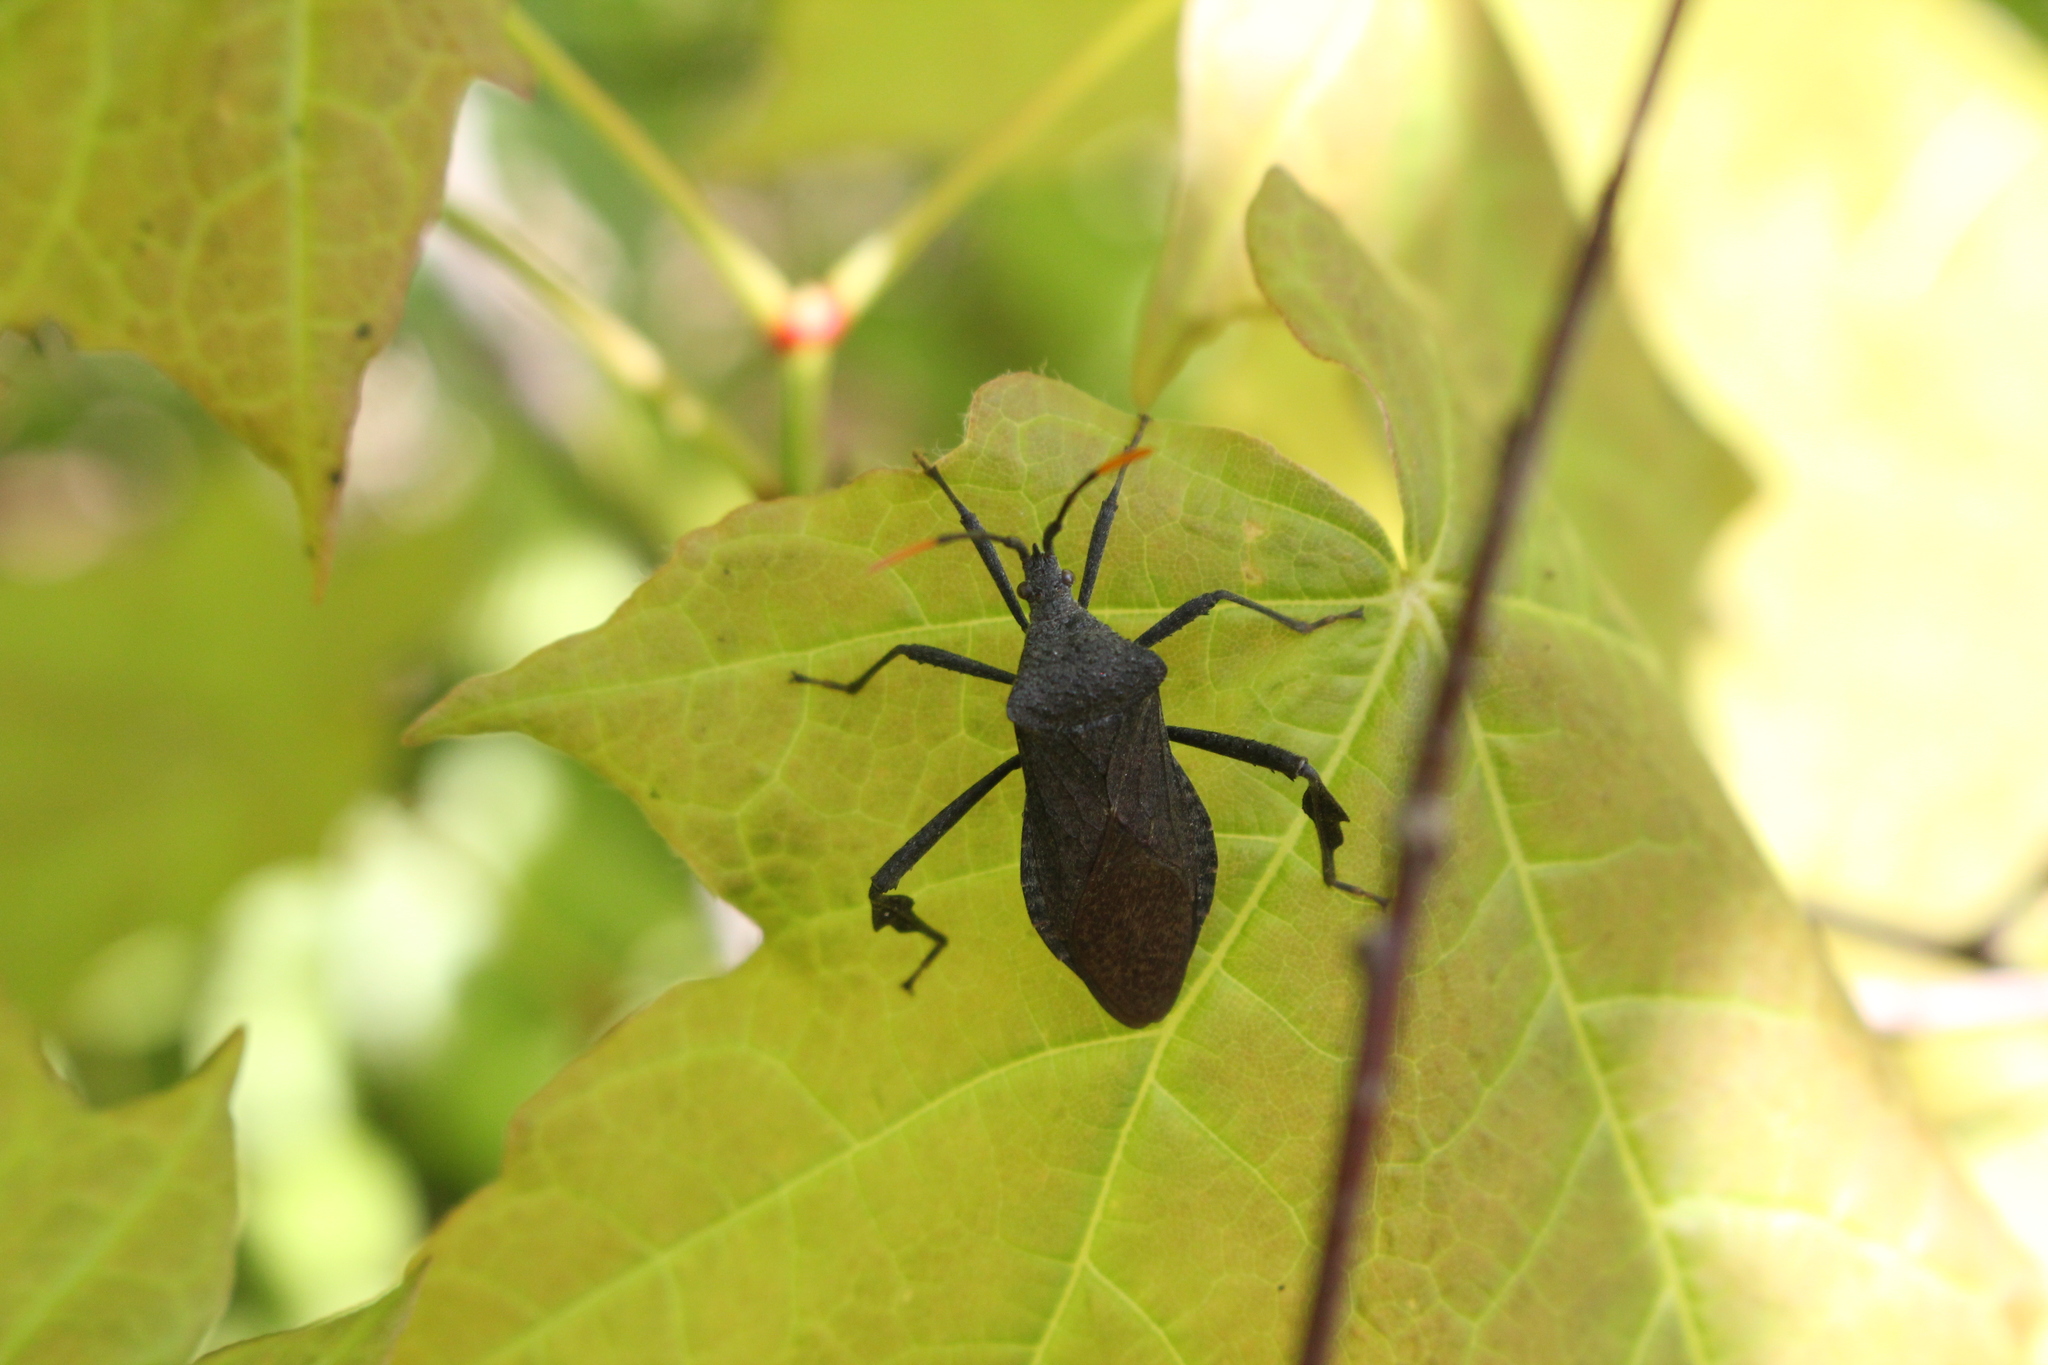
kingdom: Animalia
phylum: Arthropoda
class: Insecta
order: Hemiptera
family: Coreidae
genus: Acanthocephala
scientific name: Acanthocephala terminalis
